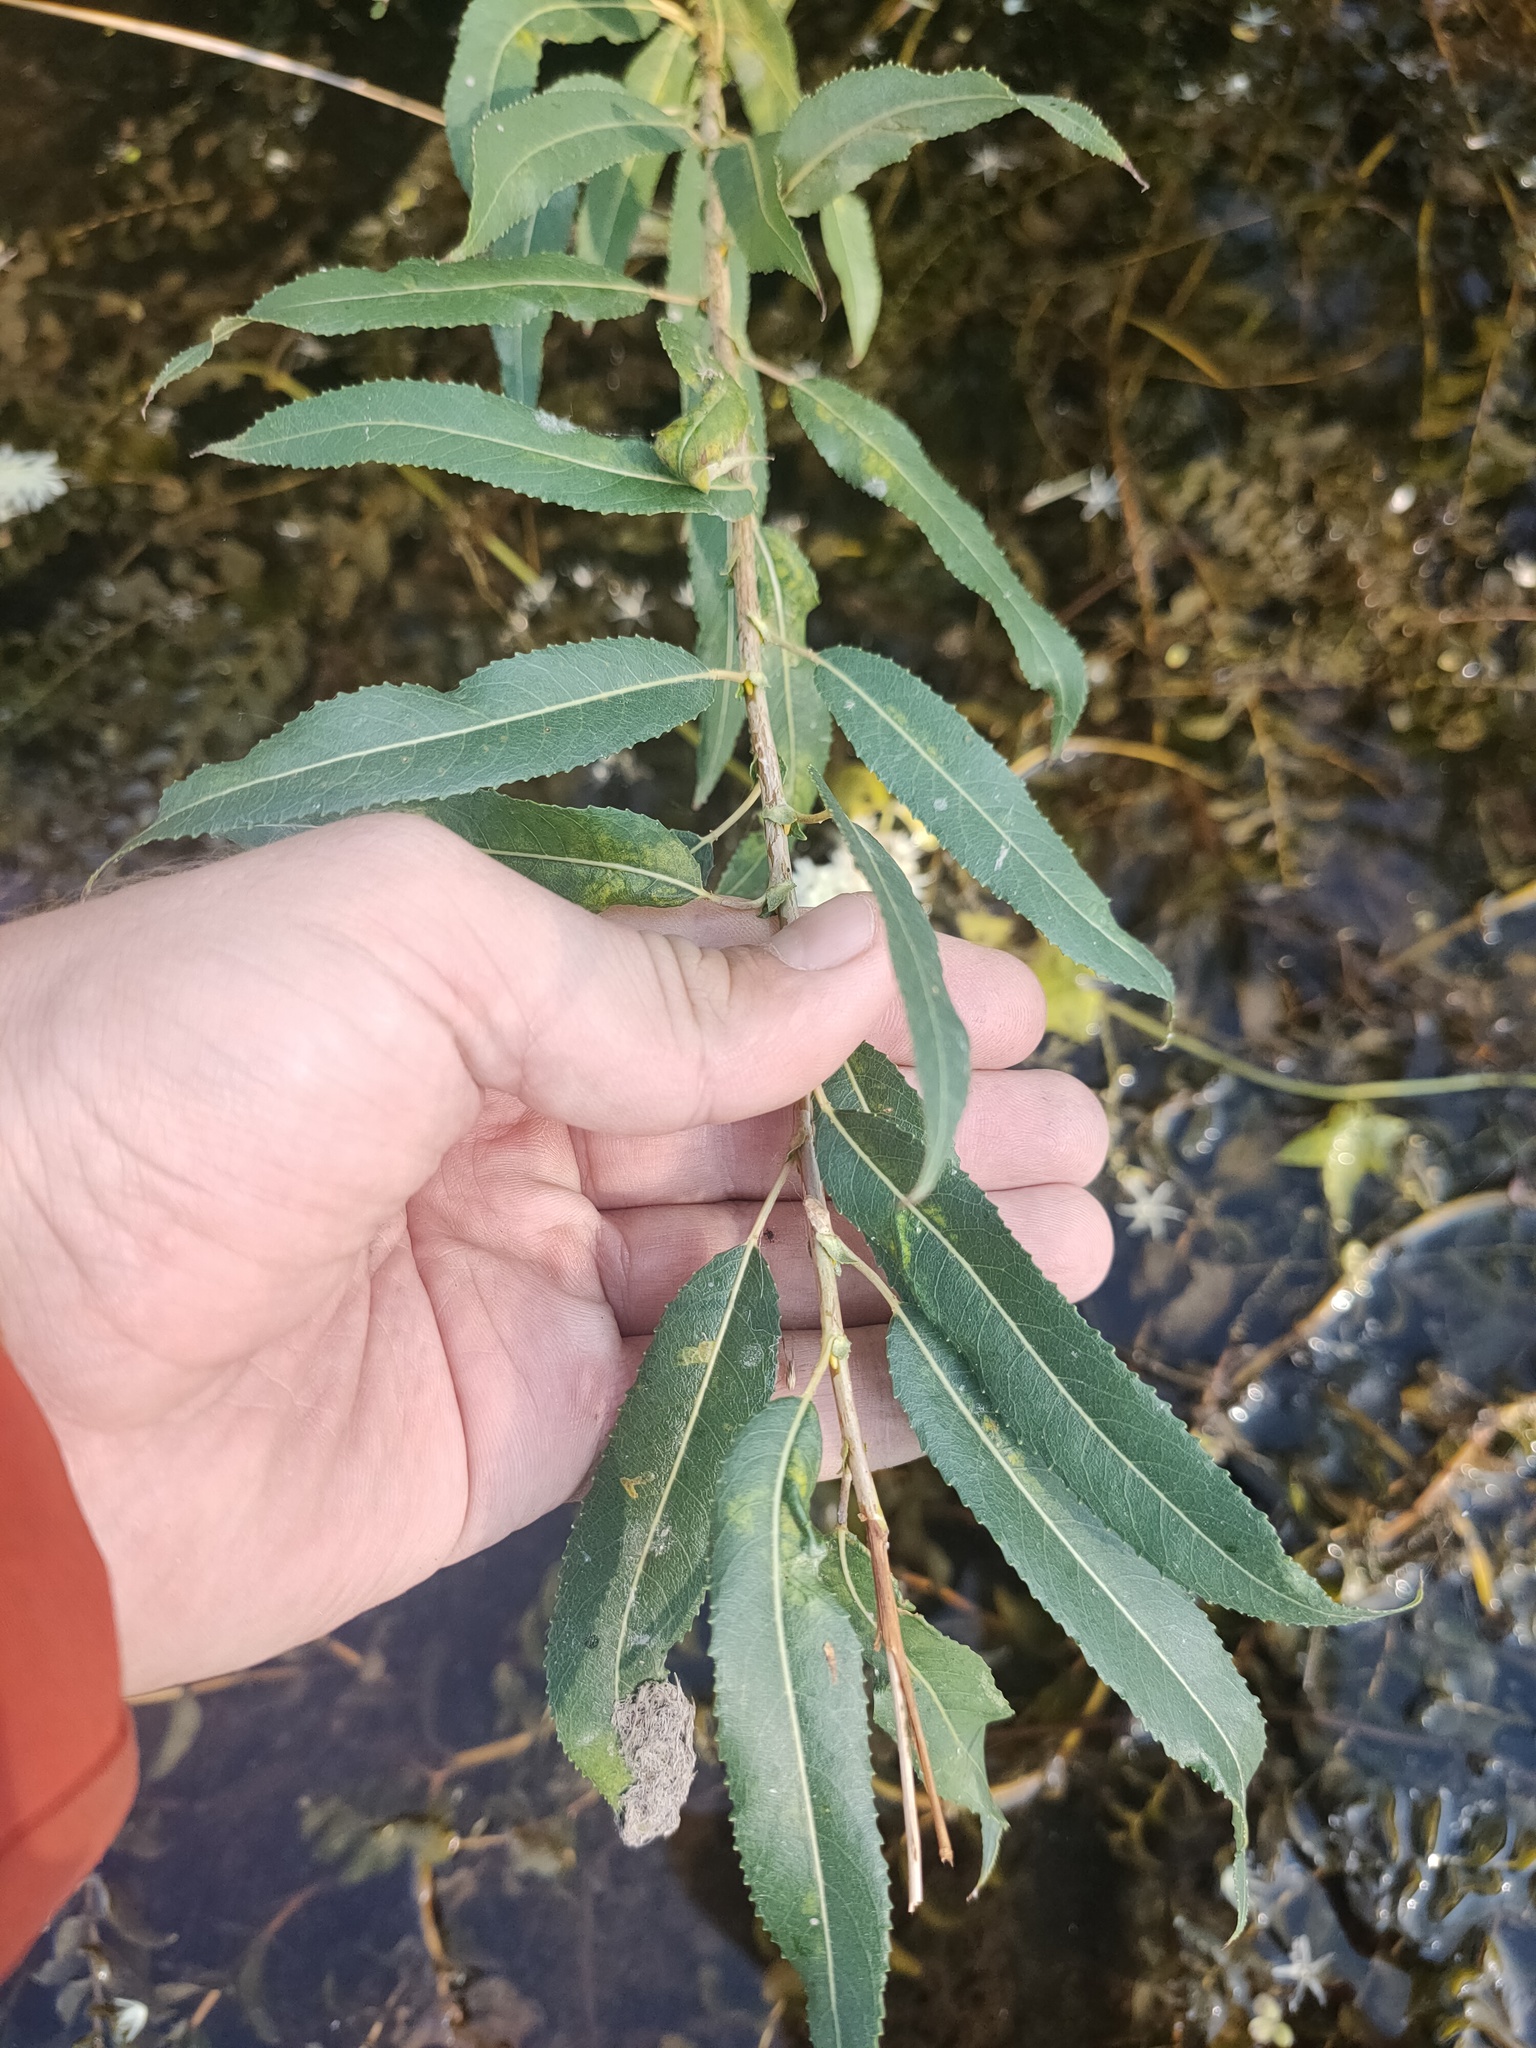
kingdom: Plantae
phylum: Tracheophyta
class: Magnoliopsida
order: Malpighiales
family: Salicaceae
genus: Salix
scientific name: Salix triandra
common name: Almond willow
